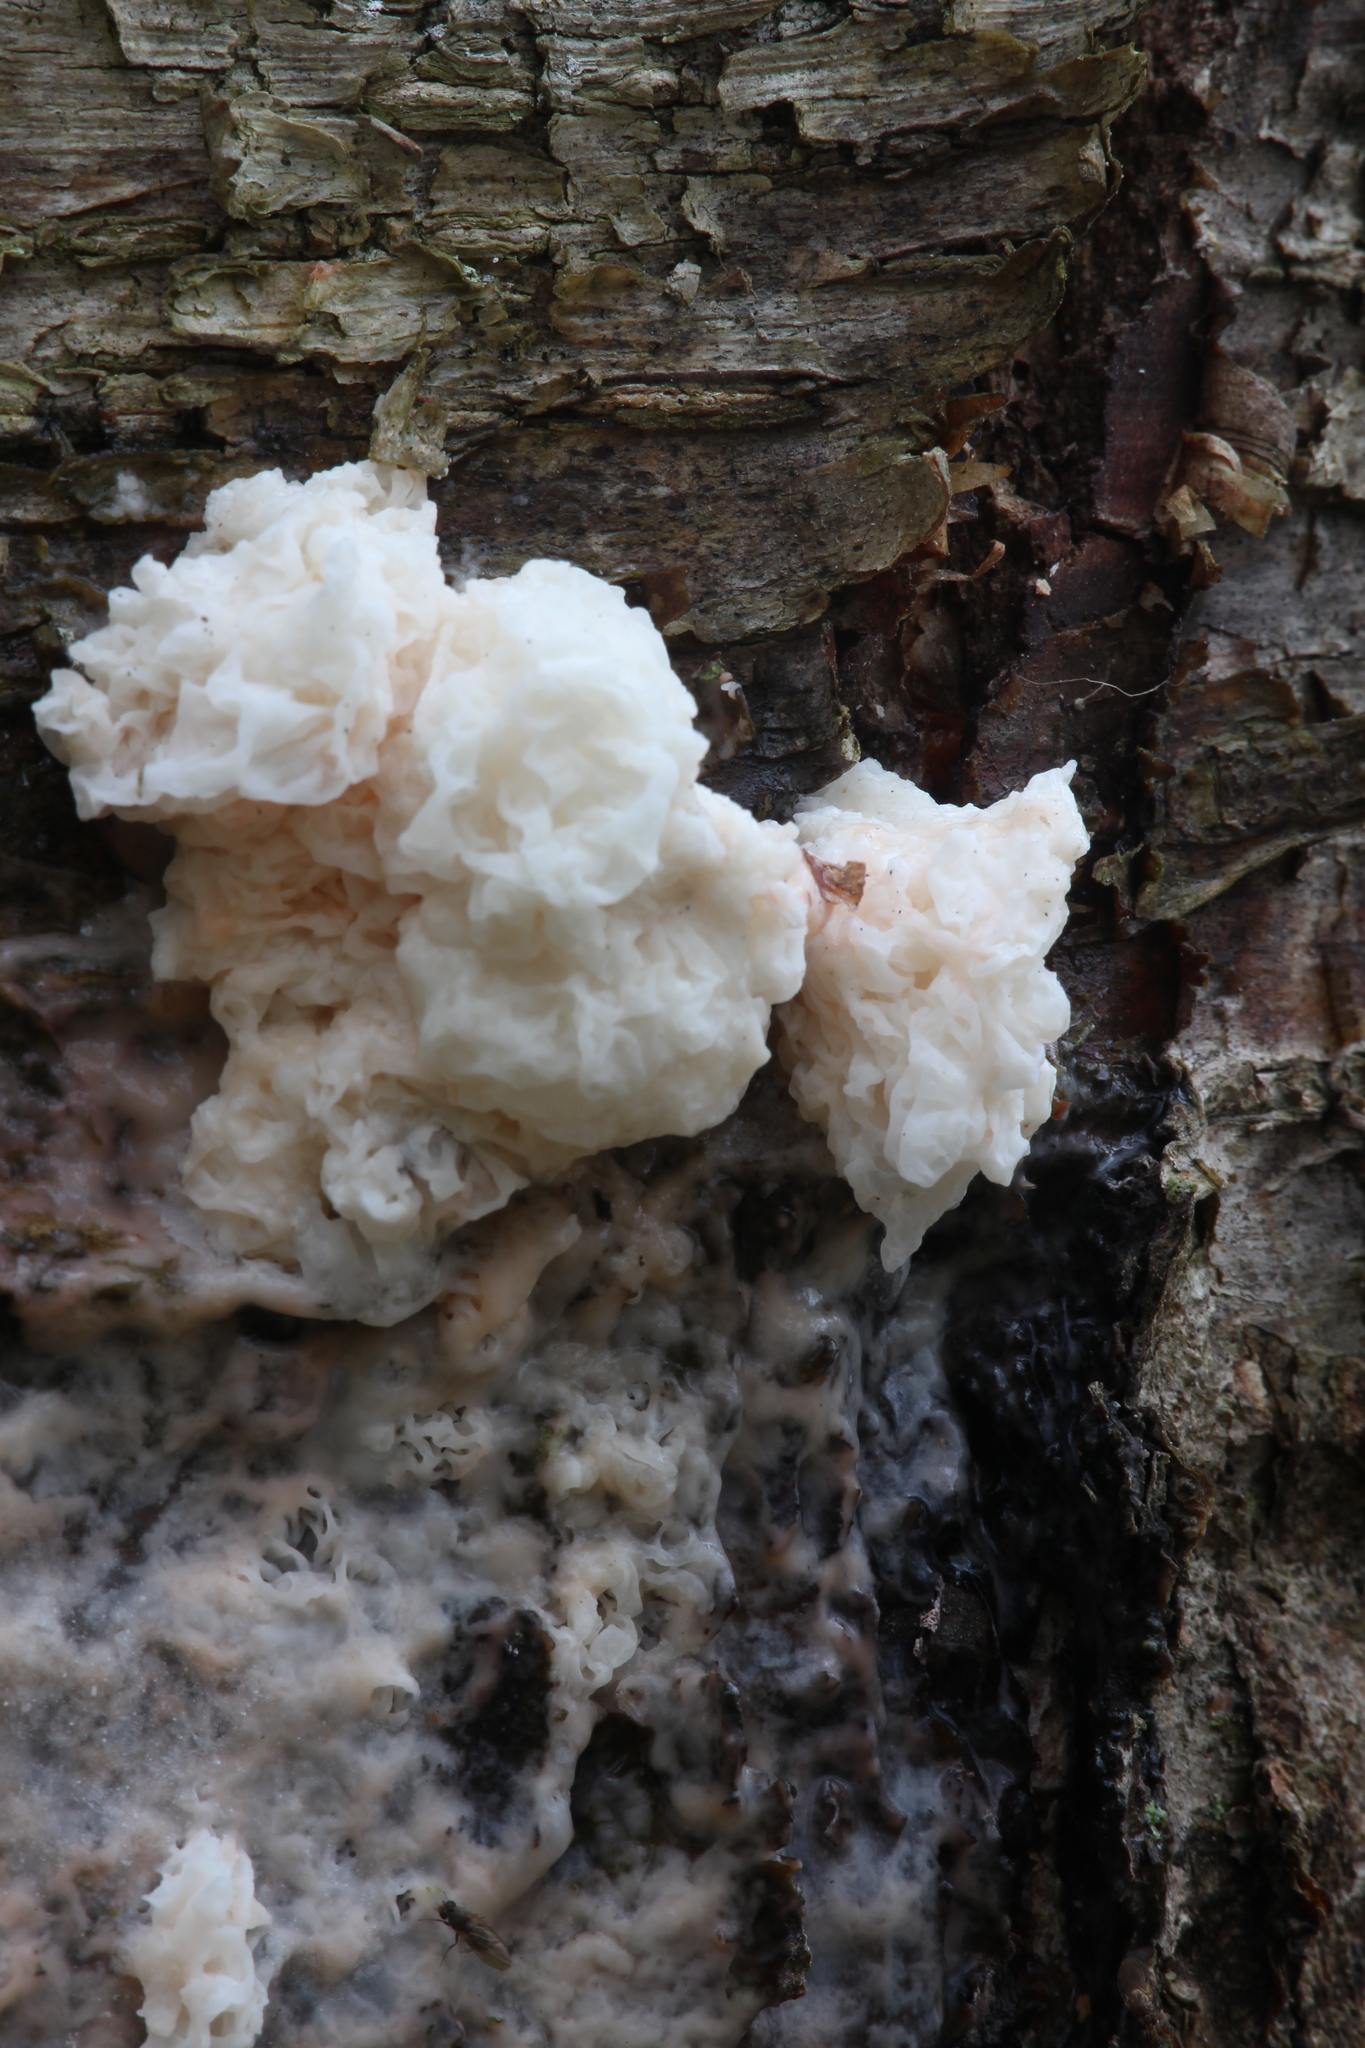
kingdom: Fungi
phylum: Basidiomycota
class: Agaricomycetes
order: Auriculariales
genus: Ductifera
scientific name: Ductifera pululahuana
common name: White jelly fungus
